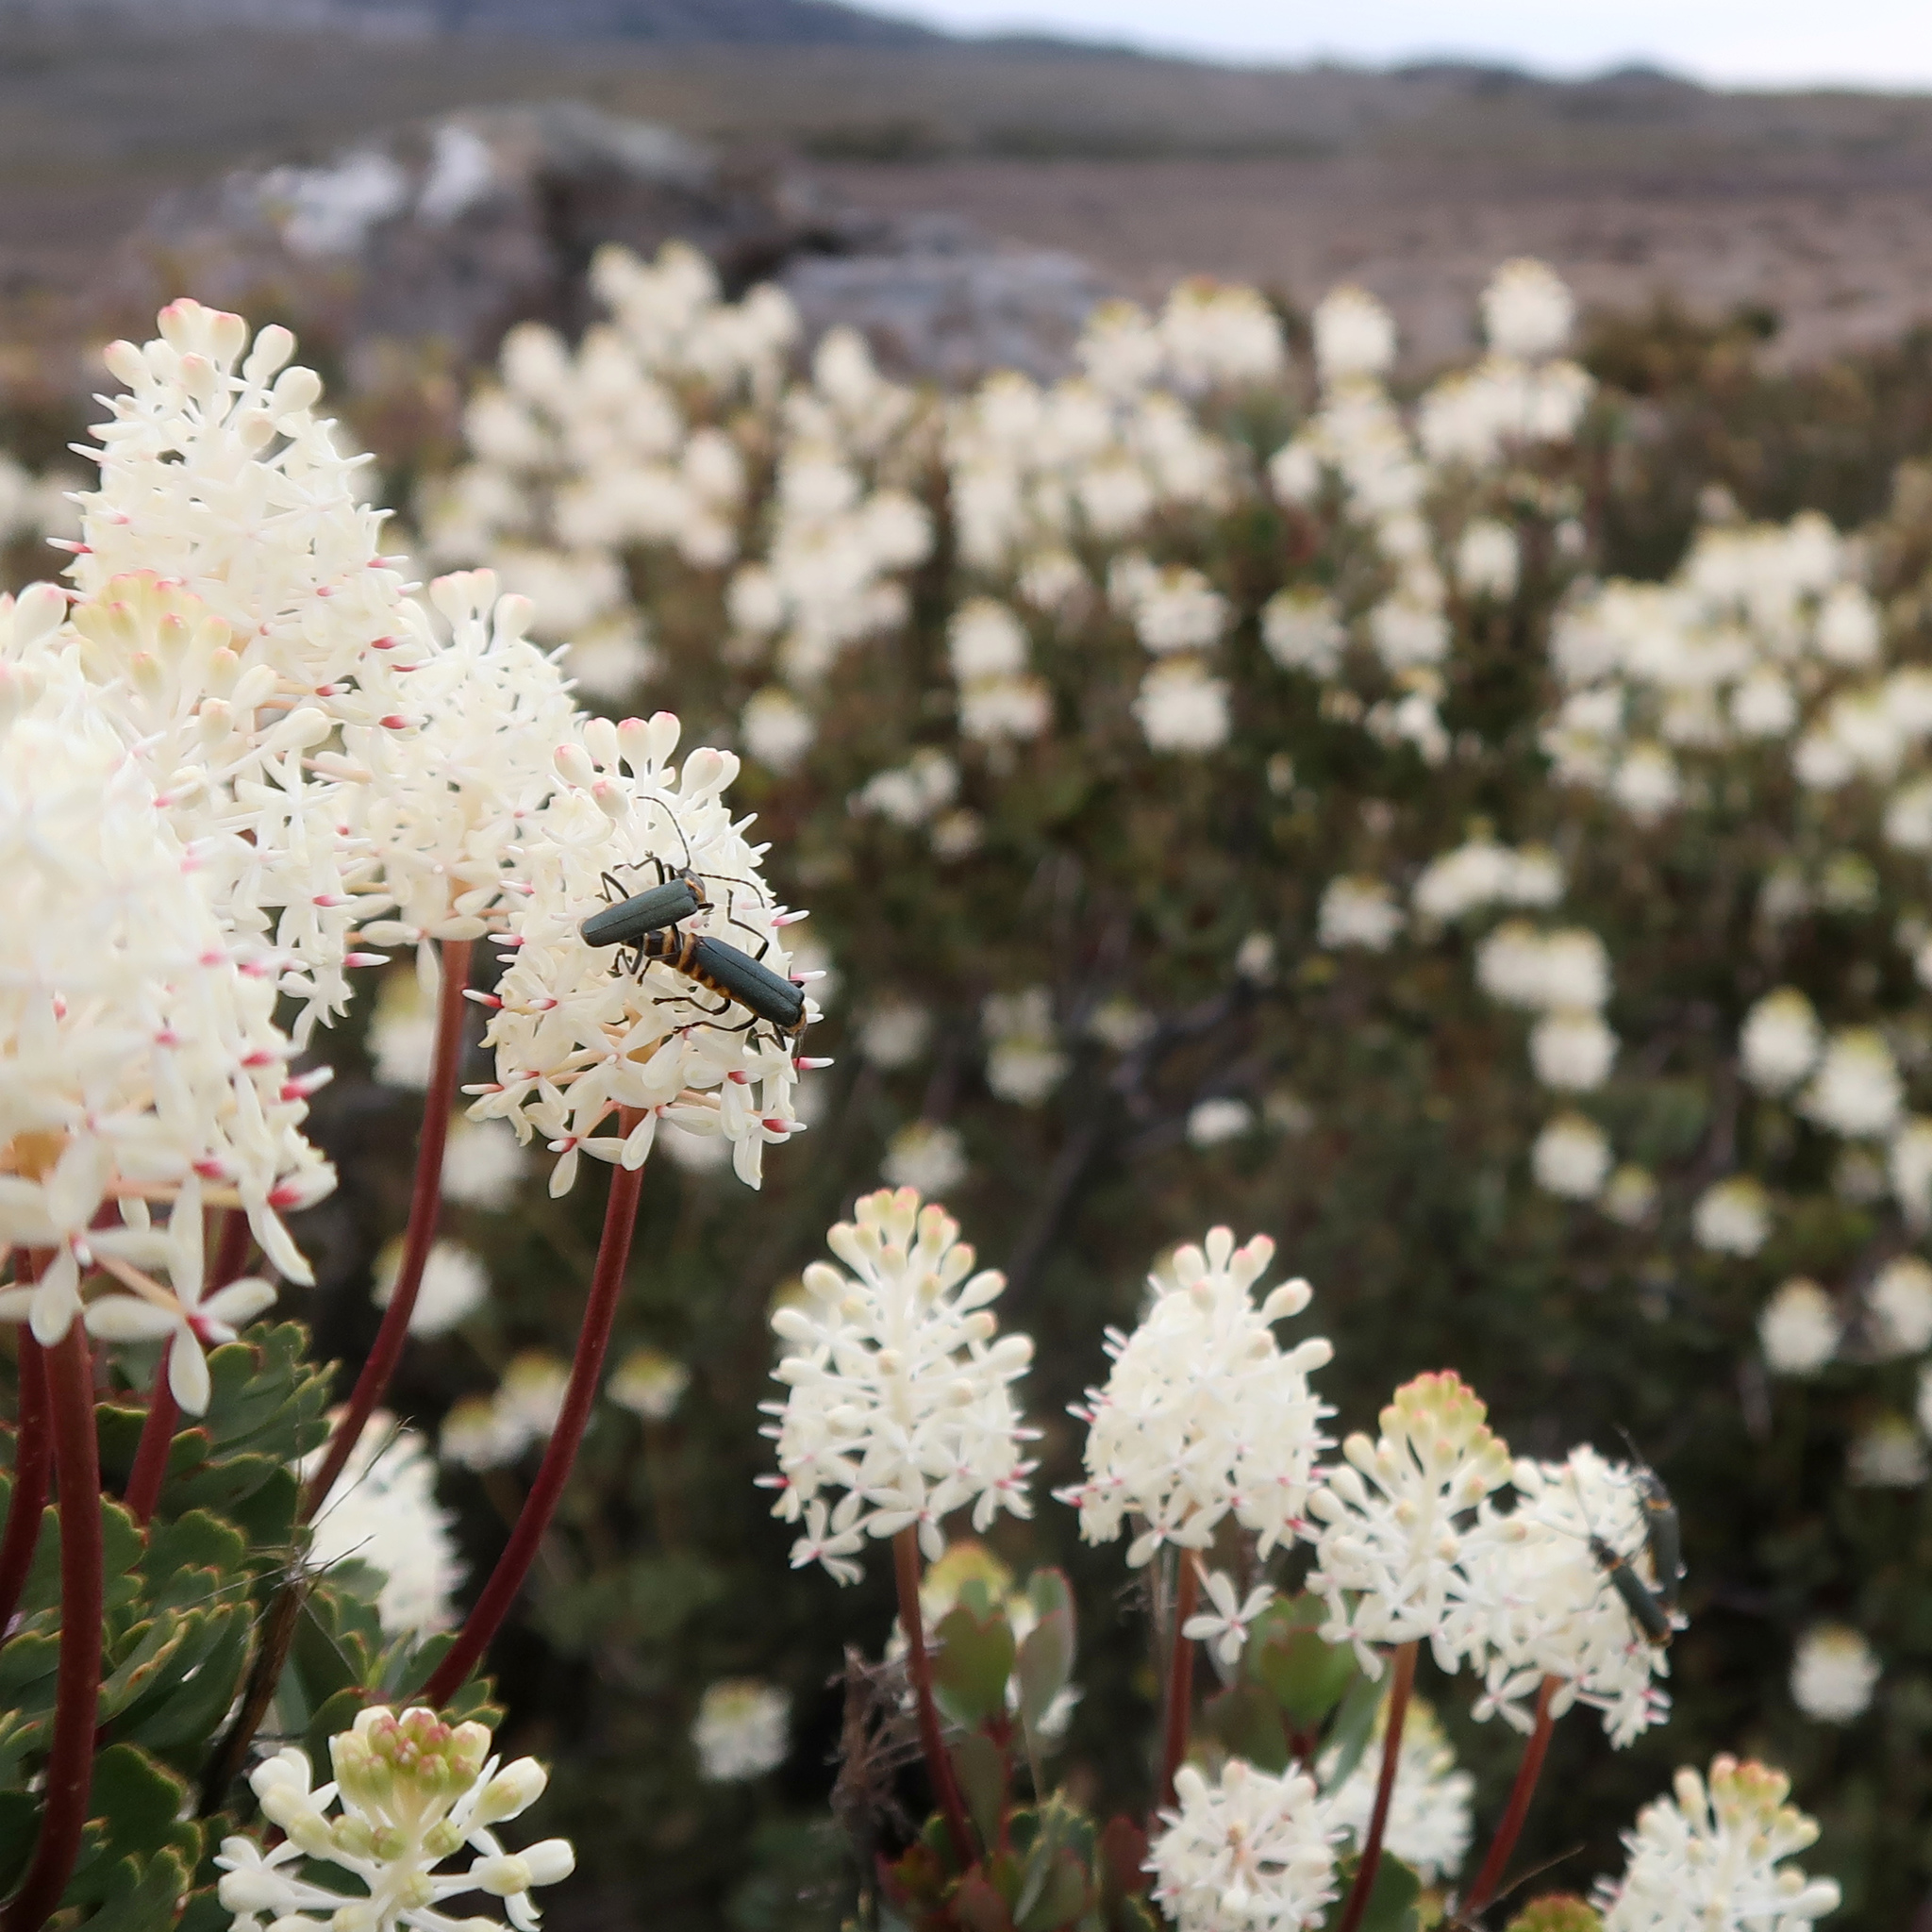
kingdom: Animalia
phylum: Arthropoda
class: Insecta
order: Coleoptera
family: Cantharidae
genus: Chauliognathus
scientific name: Chauliognathus
